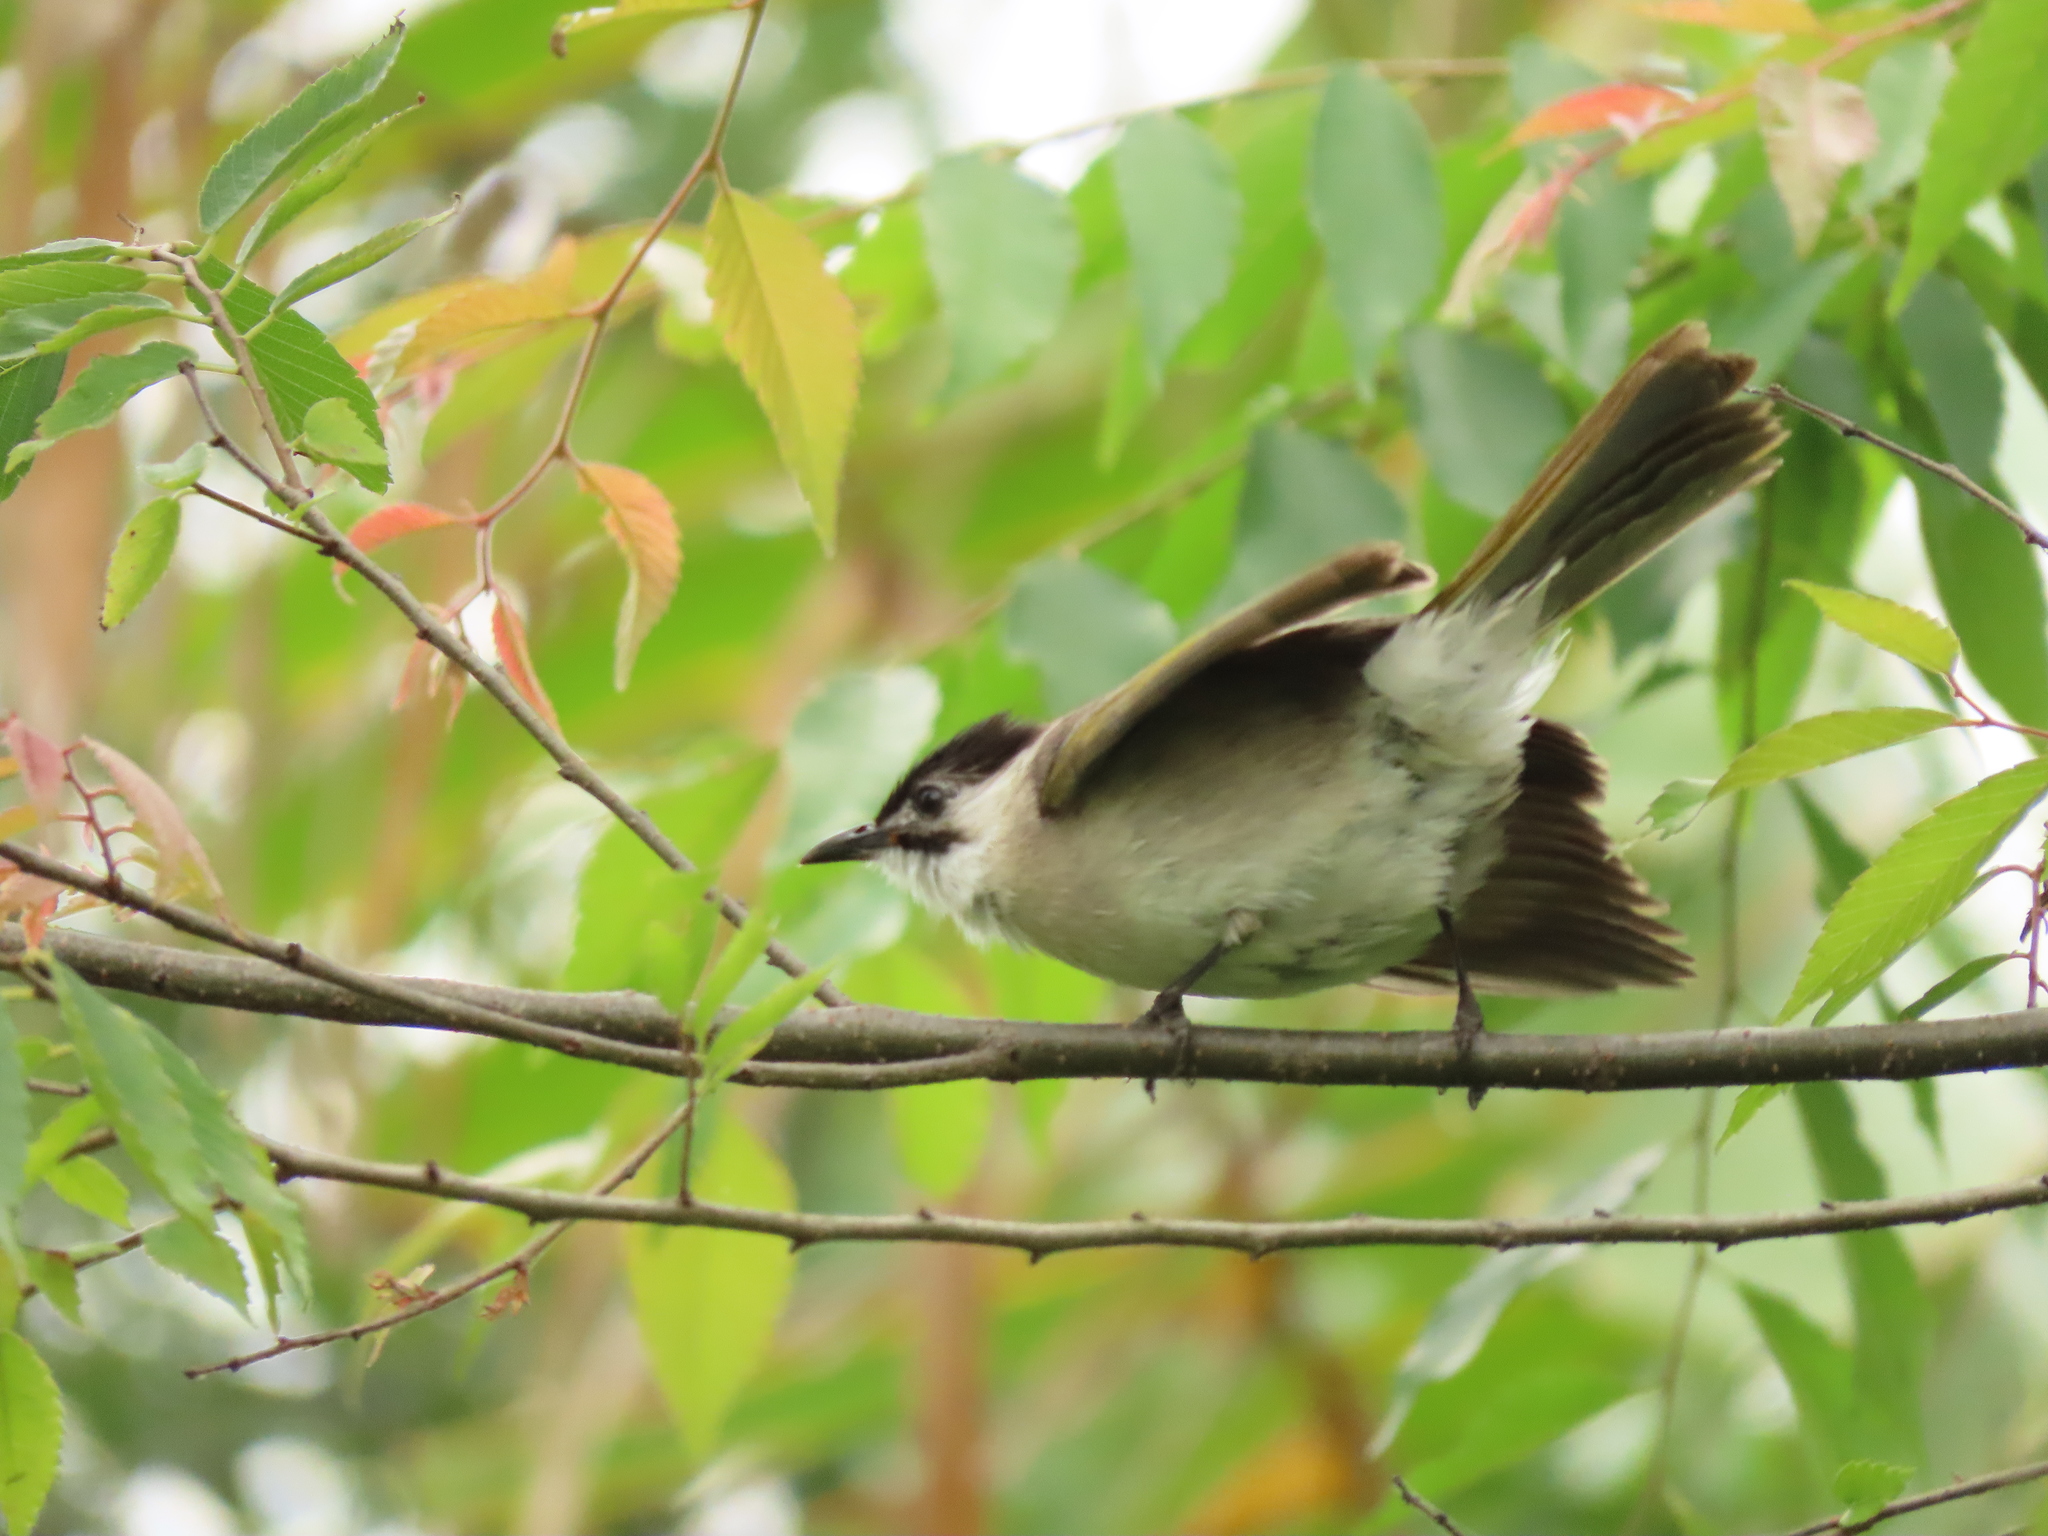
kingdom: Animalia
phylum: Chordata
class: Aves
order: Passeriformes
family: Pycnonotidae
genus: Pycnonotus
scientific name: Pycnonotus taivanus
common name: Styan's bulbul
